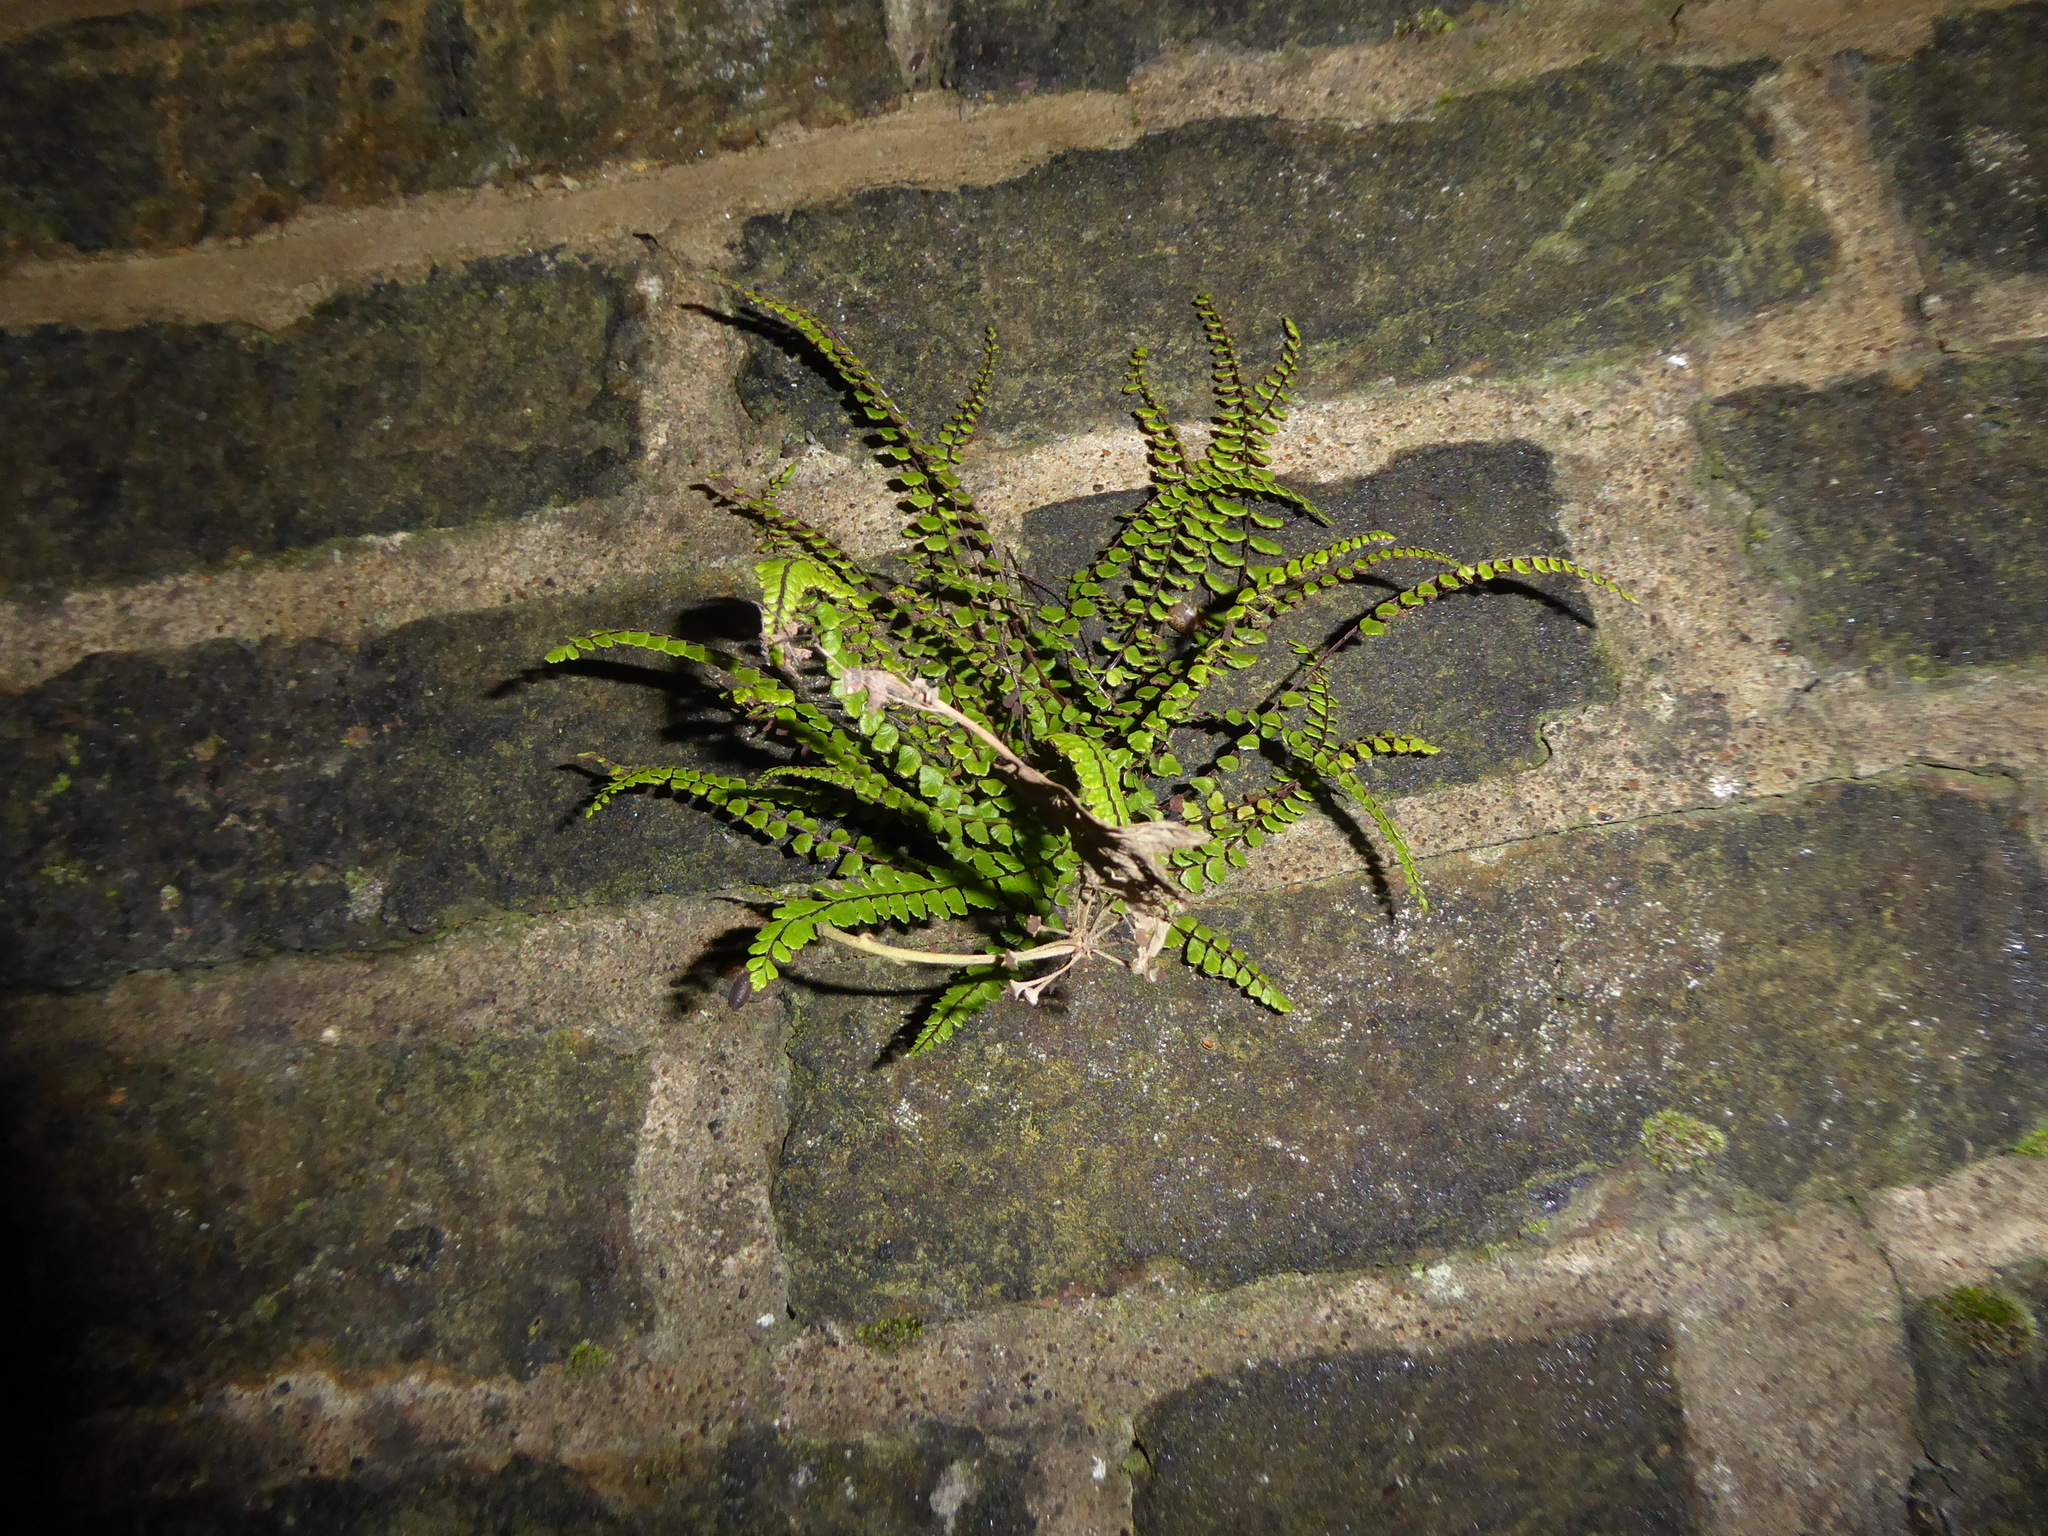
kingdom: Plantae
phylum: Tracheophyta
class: Polypodiopsida
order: Polypodiales
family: Aspleniaceae
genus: Asplenium
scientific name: Asplenium trichomanes
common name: Maidenhair spleenwort
